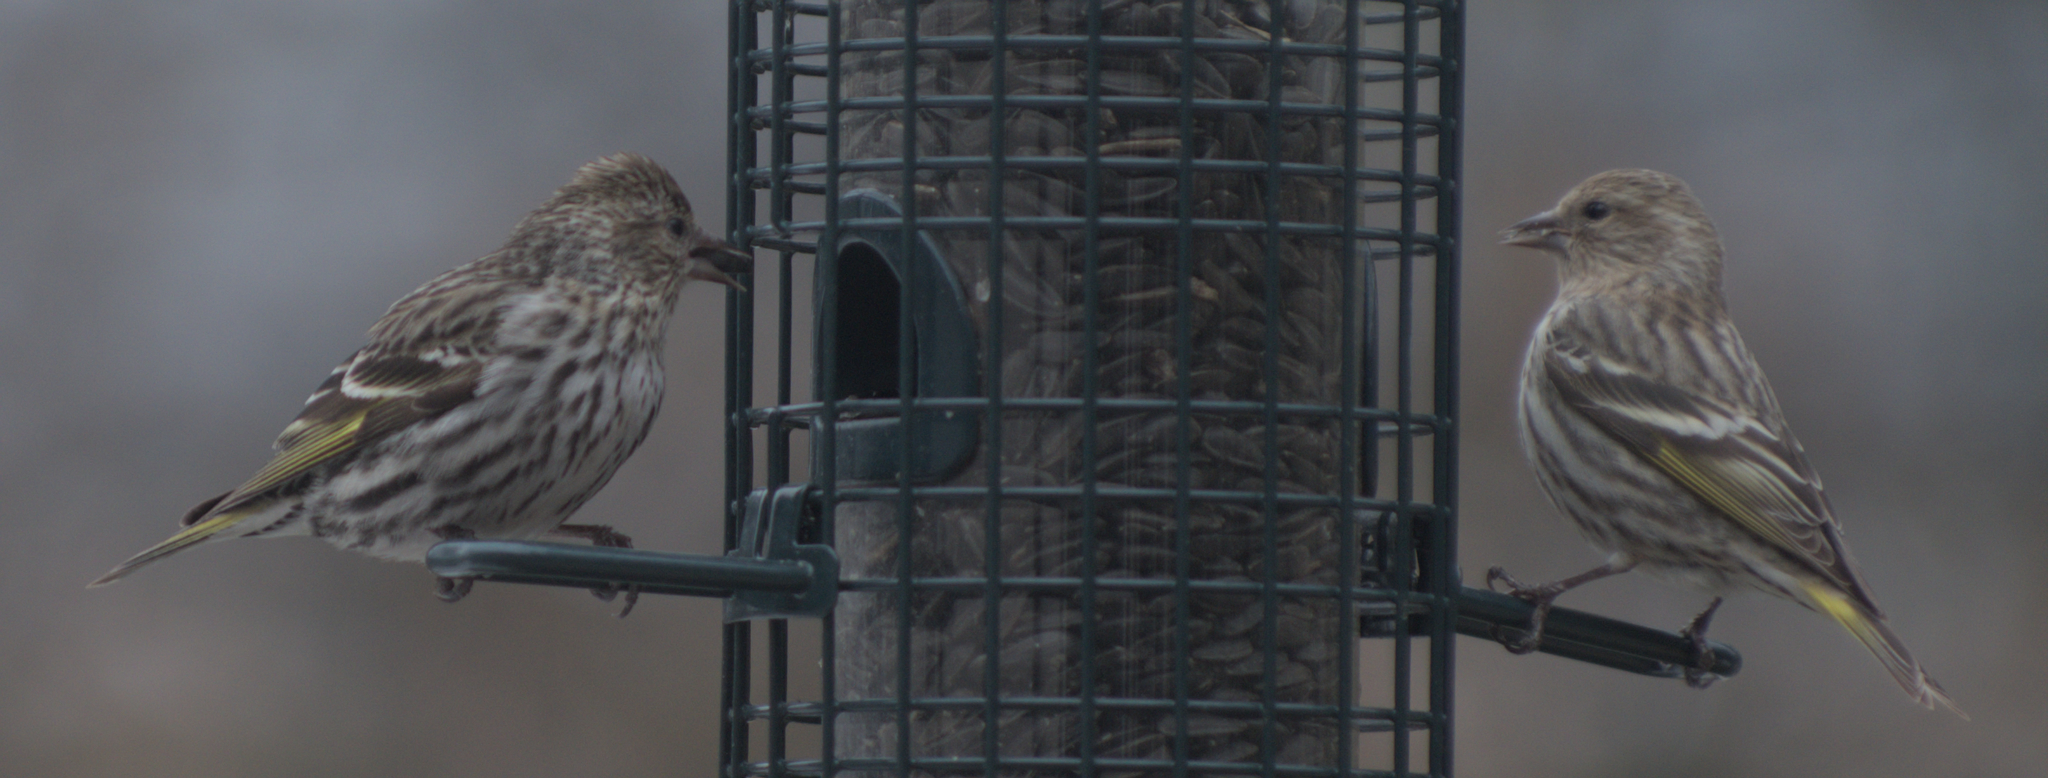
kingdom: Animalia
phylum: Chordata
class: Aves
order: Passeriformes
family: Fringillidae
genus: Spinus
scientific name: Spinus pinus
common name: Pine siskin
